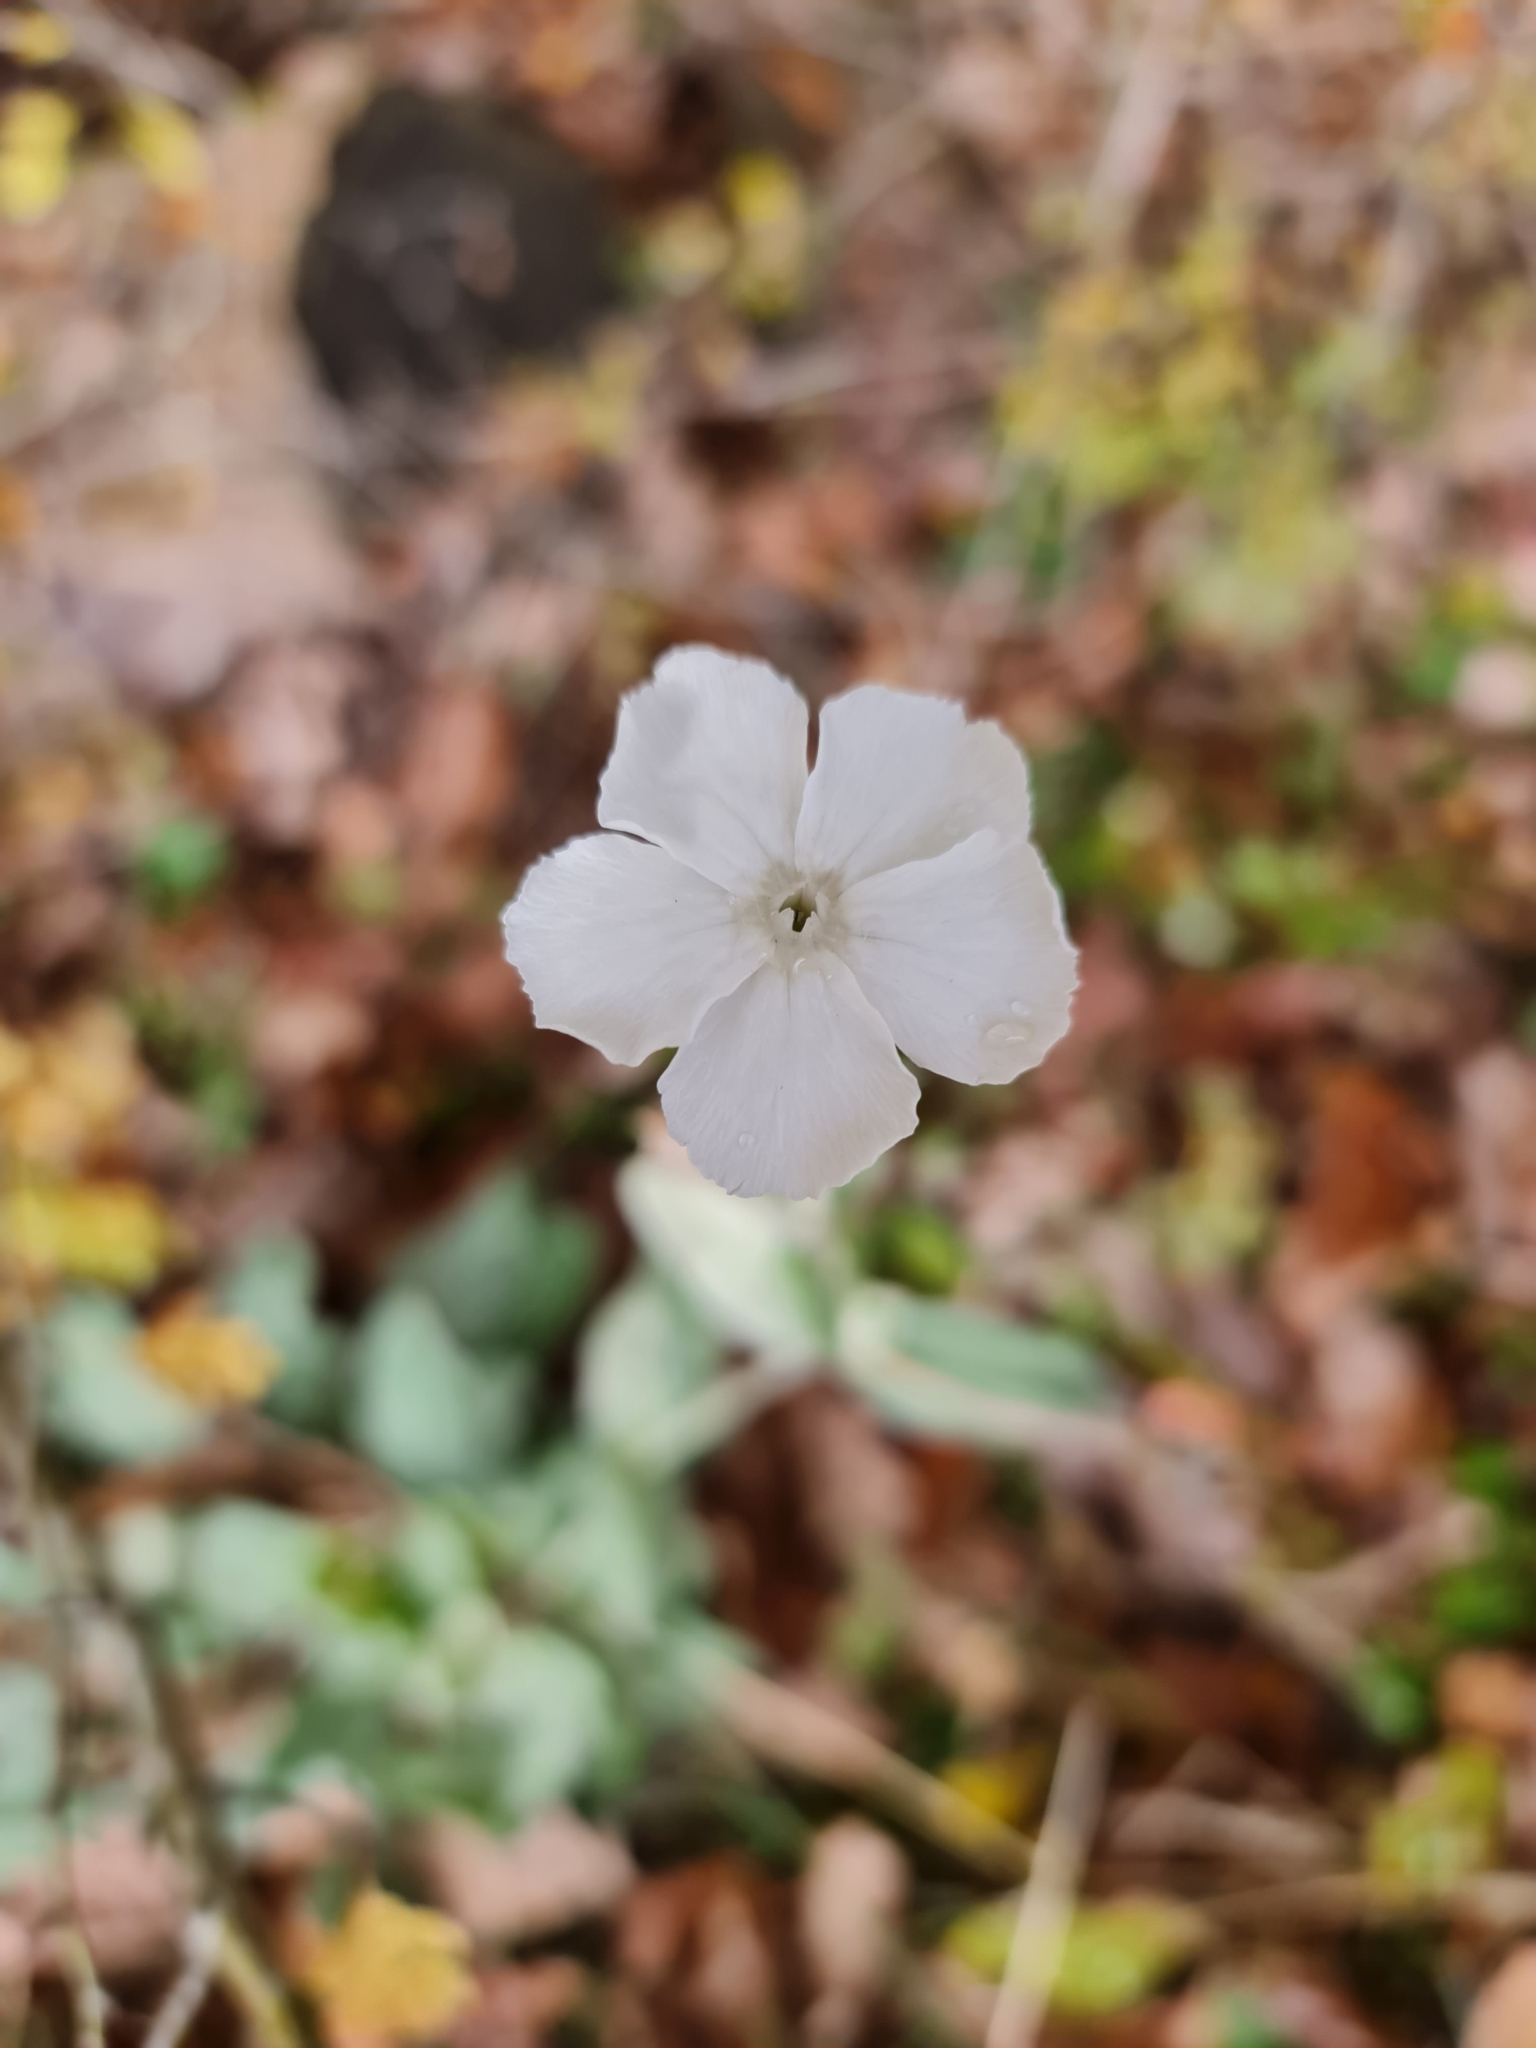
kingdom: Plantae
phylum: Tracheophyta
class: Magnoliopsida
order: Caryophyllales
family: Caryophyllaceae
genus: Silene
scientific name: Silene coronaria
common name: Rose campion
